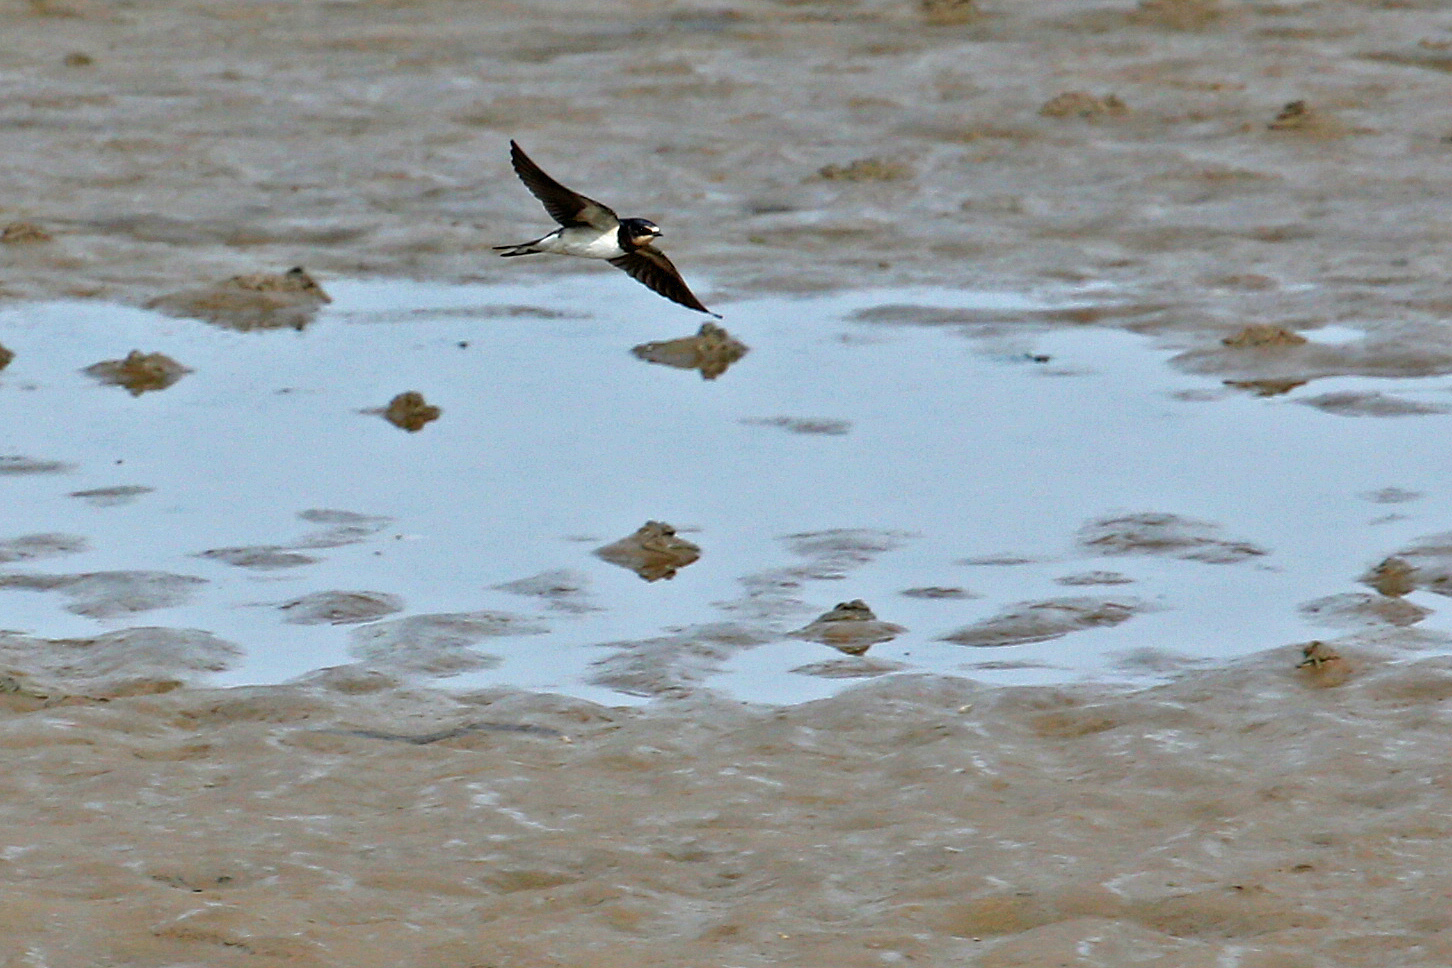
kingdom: Animalia
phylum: Chordata
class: Aves
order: Passeriformes
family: Hirundinidae
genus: Hirundo
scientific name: Hirundo rustica
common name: Barn swallow
